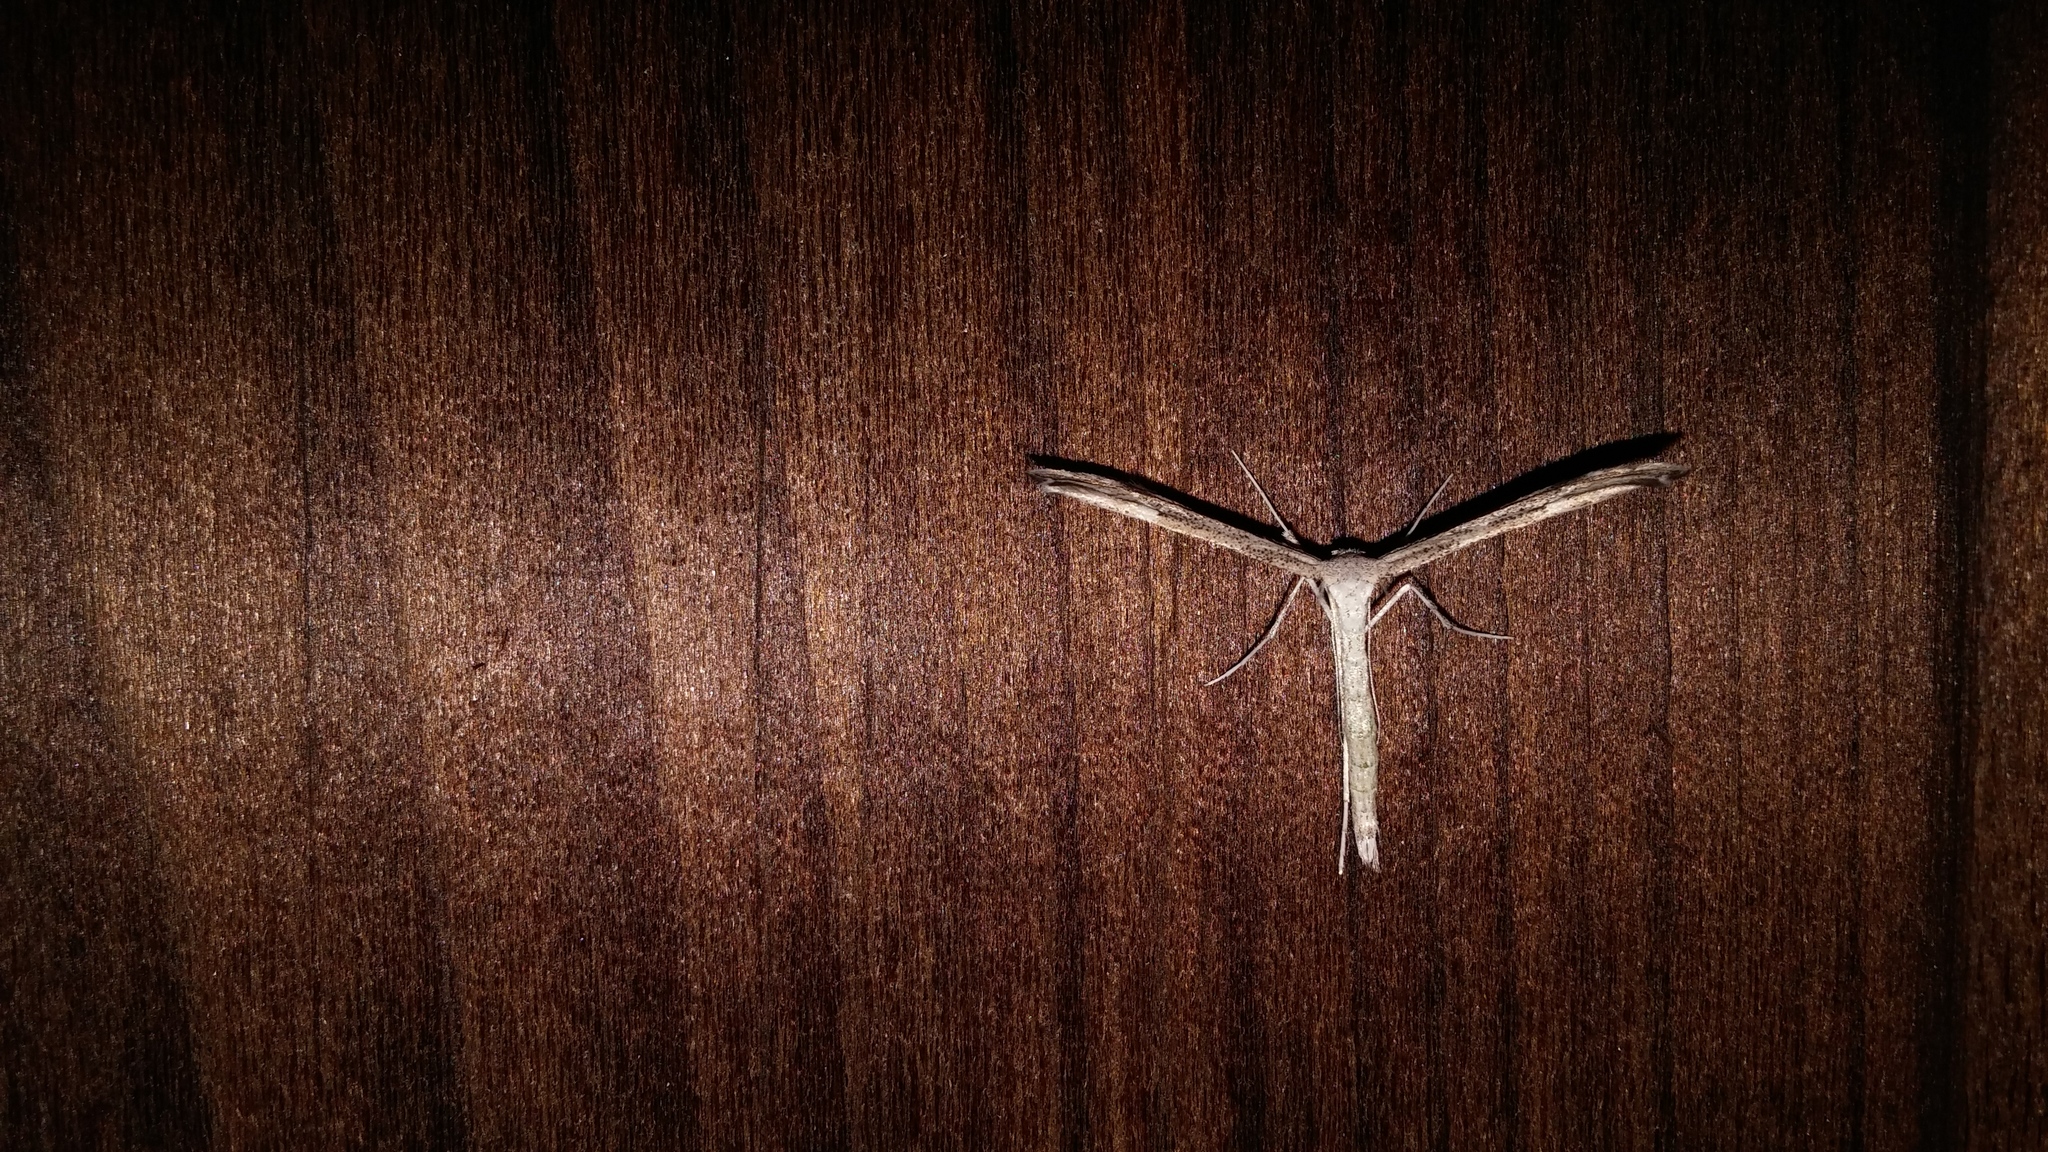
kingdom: Animalia
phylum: Arthropoda
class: Insecta
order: Lepidoptera
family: Pterophoridae
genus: Emmelina
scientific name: Emmelina monodactyla
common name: Common plume
